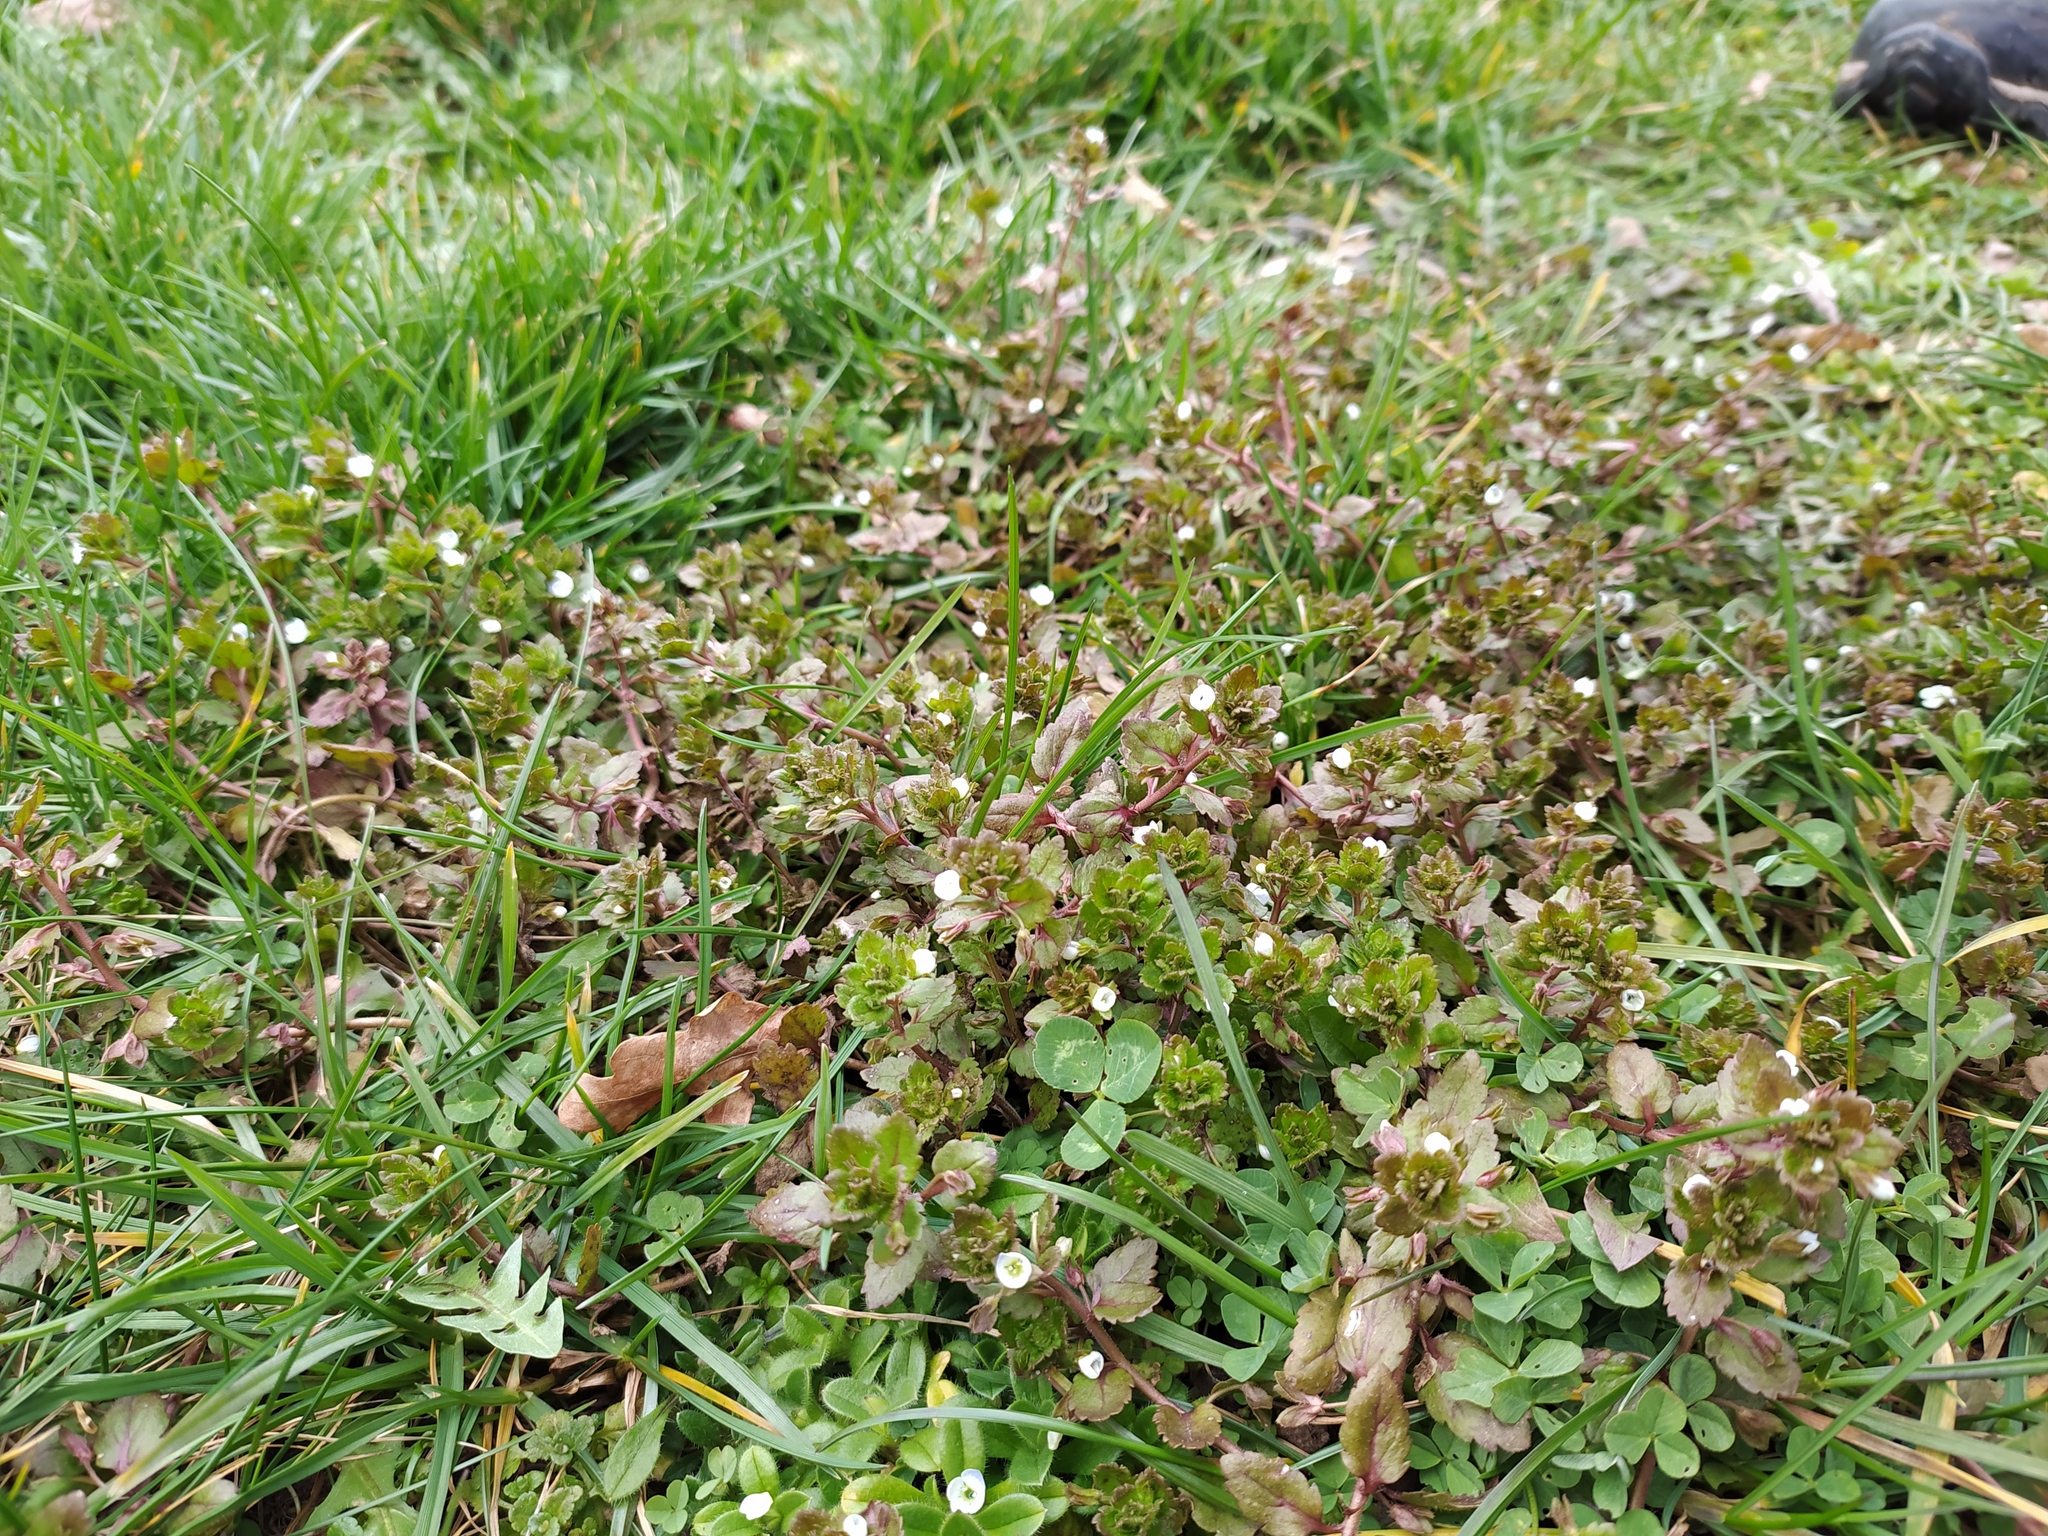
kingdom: Plantae
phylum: Tracheophyta
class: Magnoliopsida
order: Lamiales
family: Plantaginaceae
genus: Veronica
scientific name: Veronica agrestis
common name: Green field-speedwell
